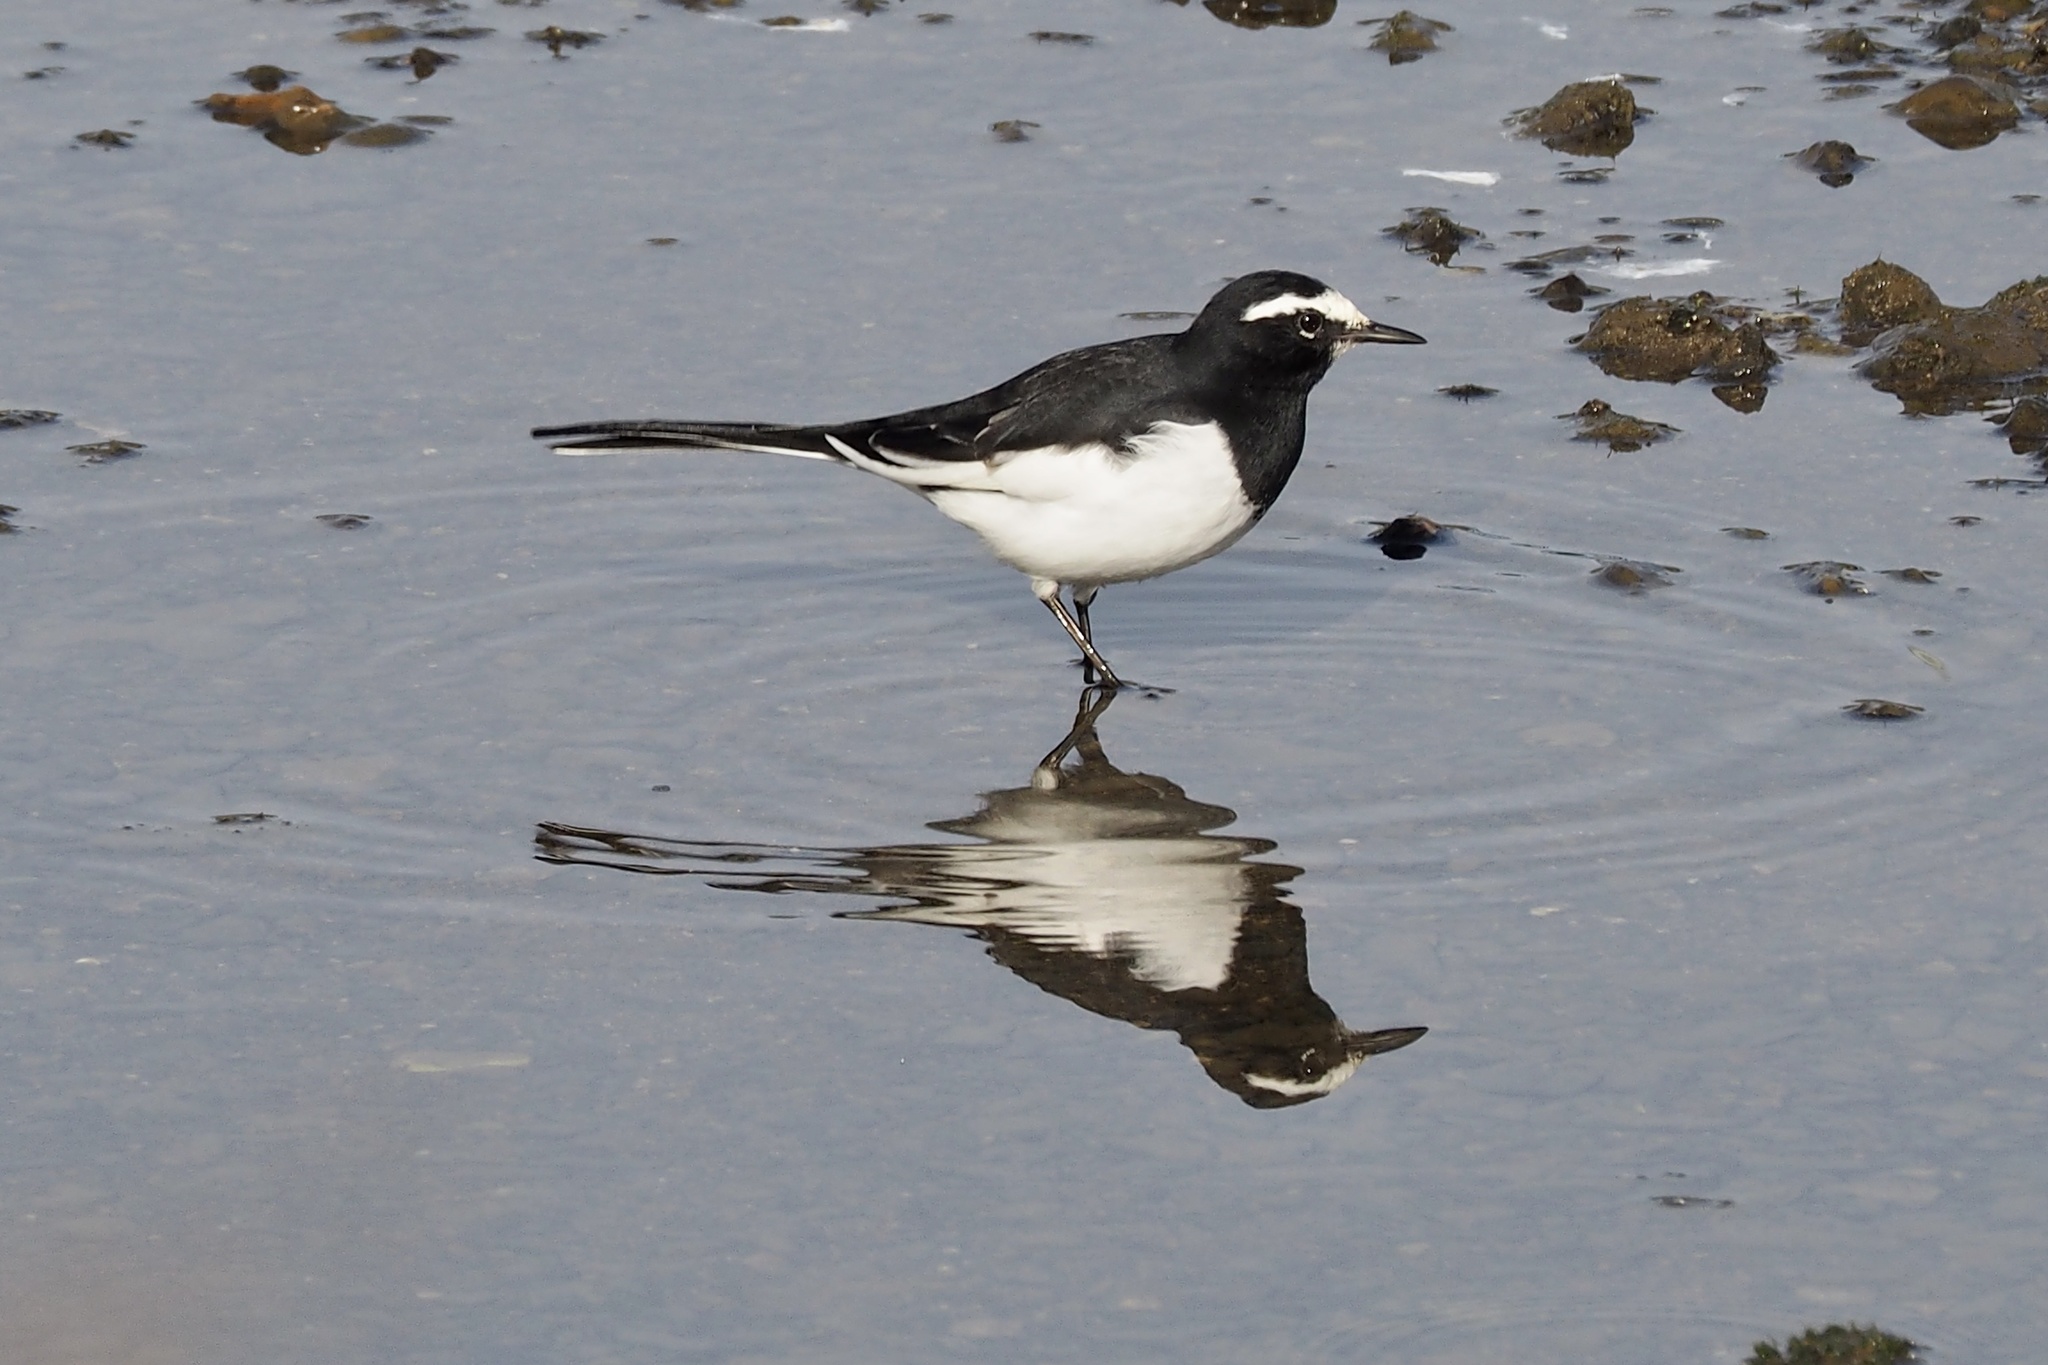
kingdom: Animalia
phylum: Chordata
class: Aves
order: Passeriformes
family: Motacillidae
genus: Motacilla
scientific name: Motacilla grandis
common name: Japanese wagtail
